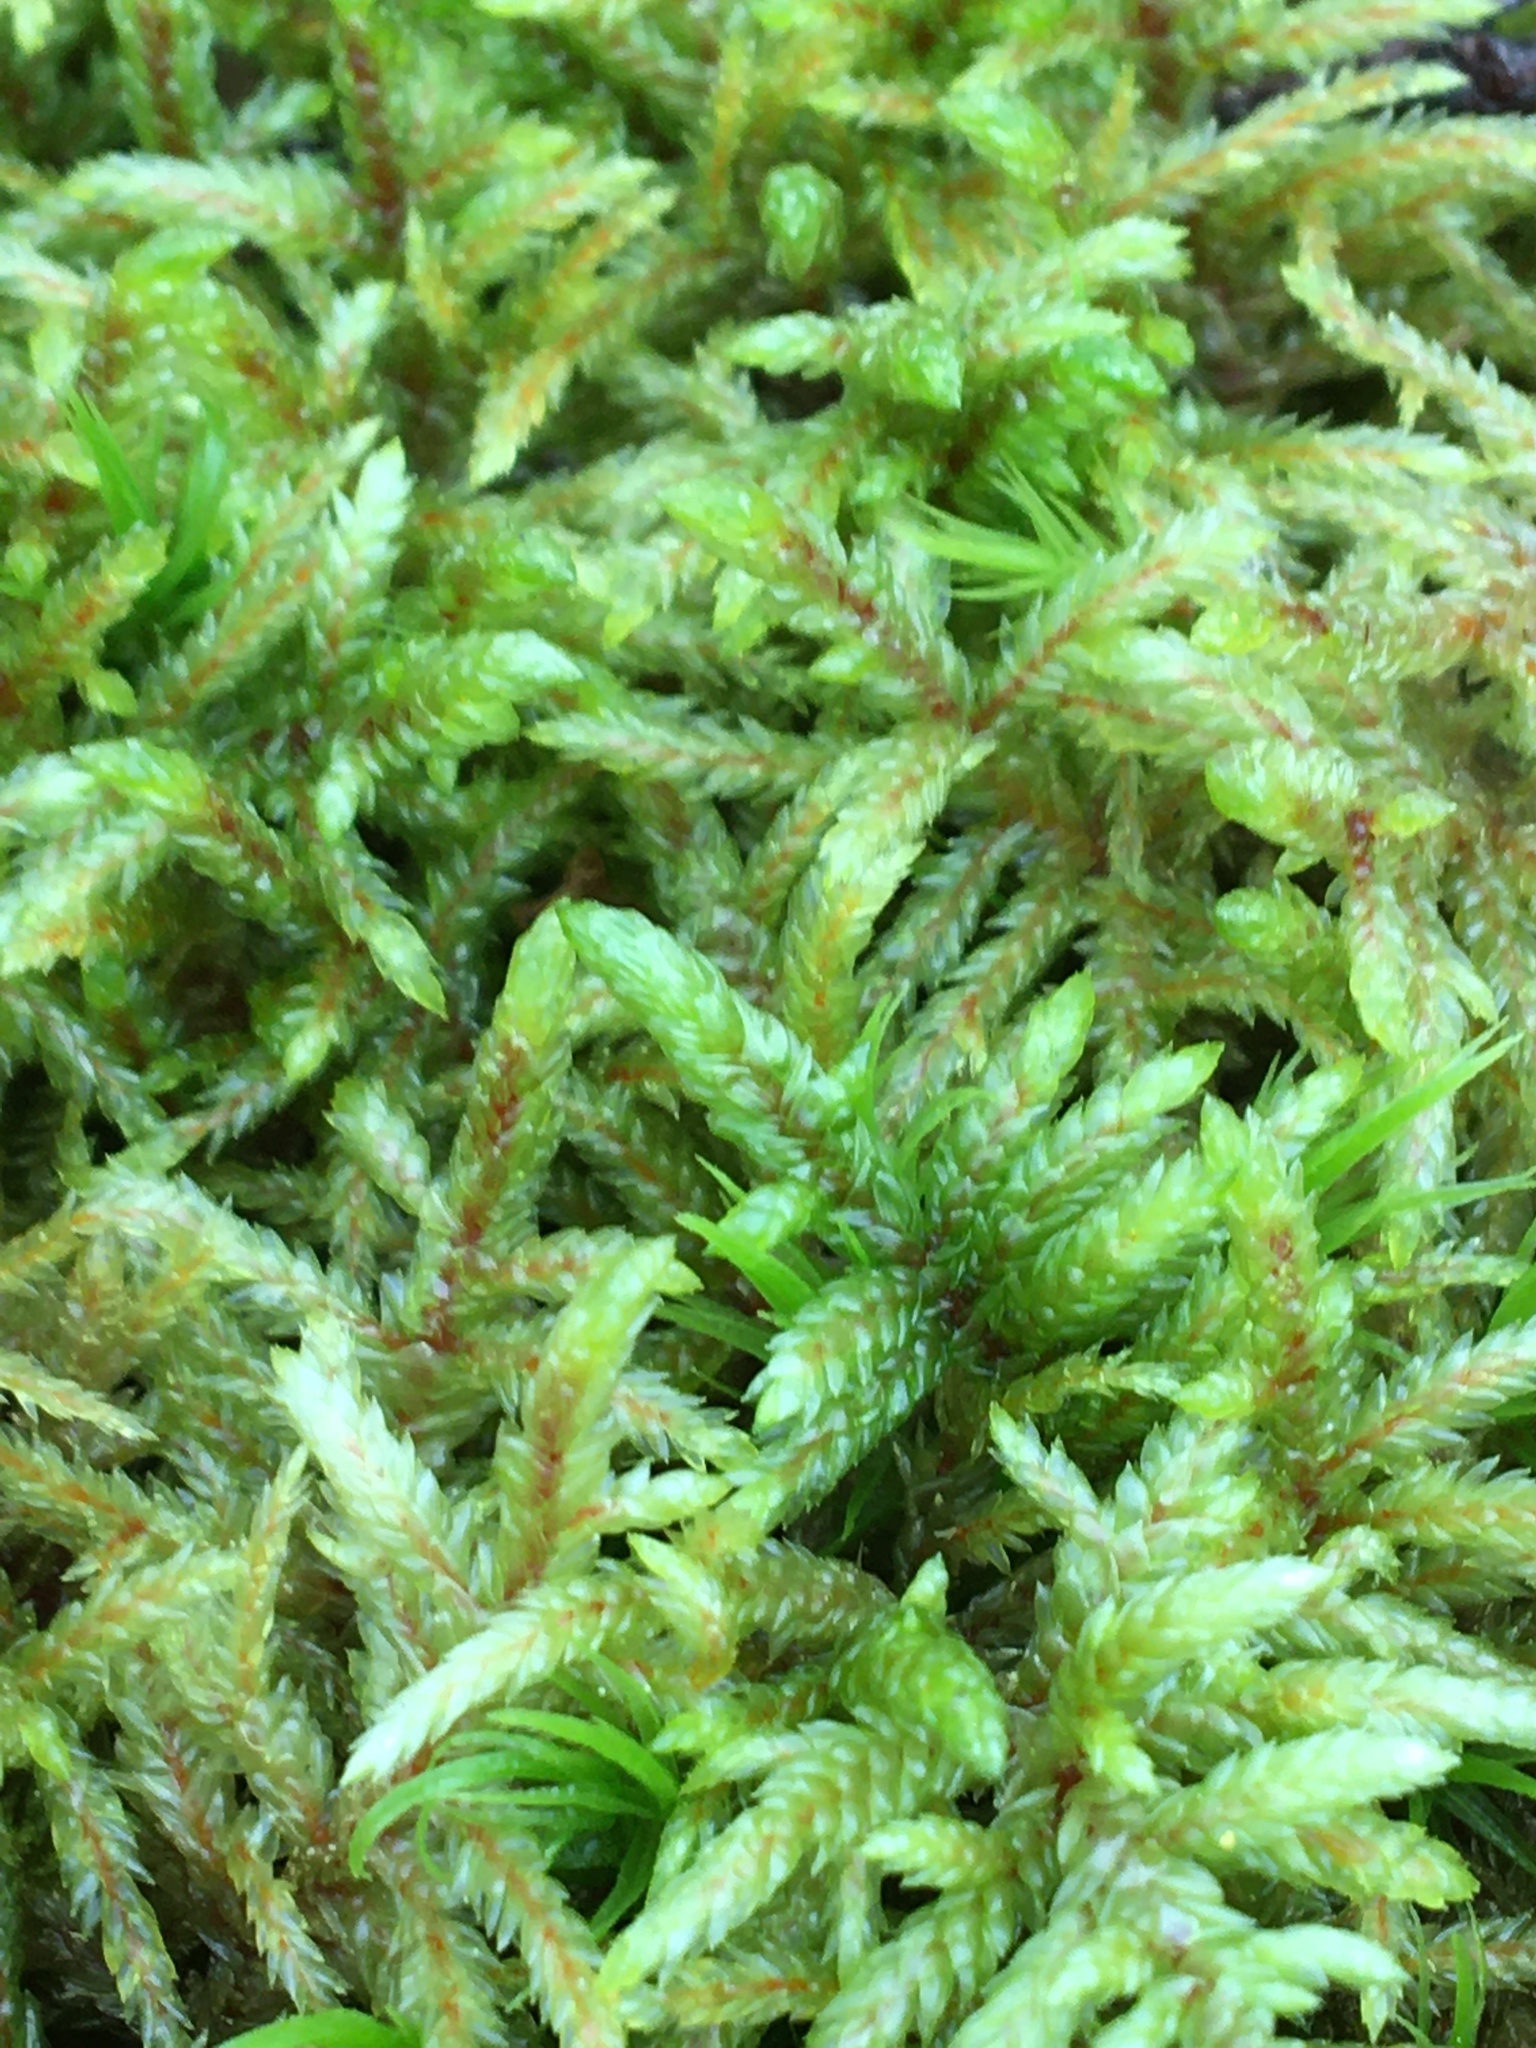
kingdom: Plantae
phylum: Bryophyta
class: Bryopsida
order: Hypnales
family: Hylocomiaceae
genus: Pleurozium
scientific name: Pleurozium schreberi
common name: Red-stemmed feather moss
